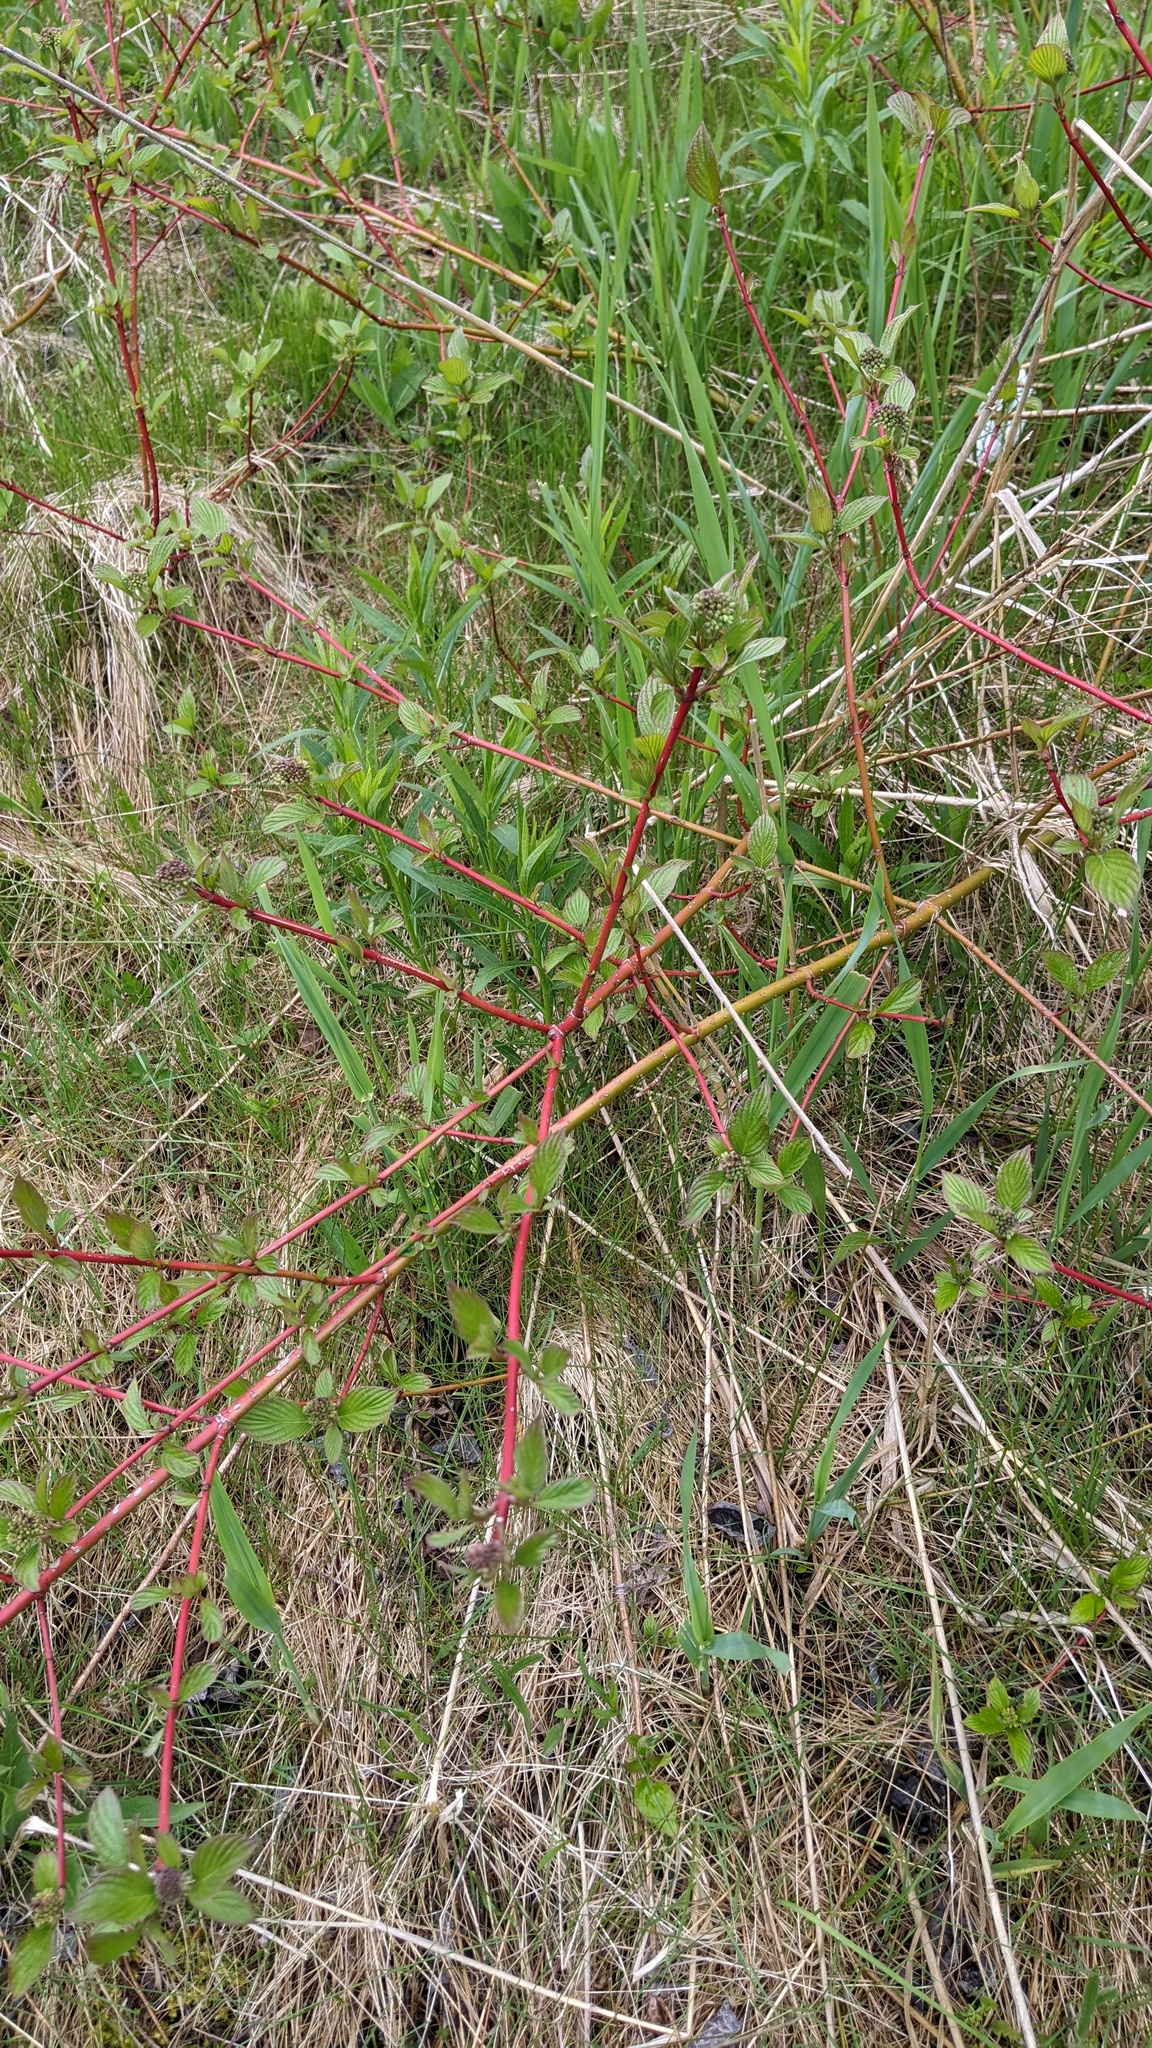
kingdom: Plantae
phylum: Tracheophyta
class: Magnoliopsida
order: Cornales
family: Cornaceae
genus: Cornus
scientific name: Cornus sericea
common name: Red-osier dogwood
